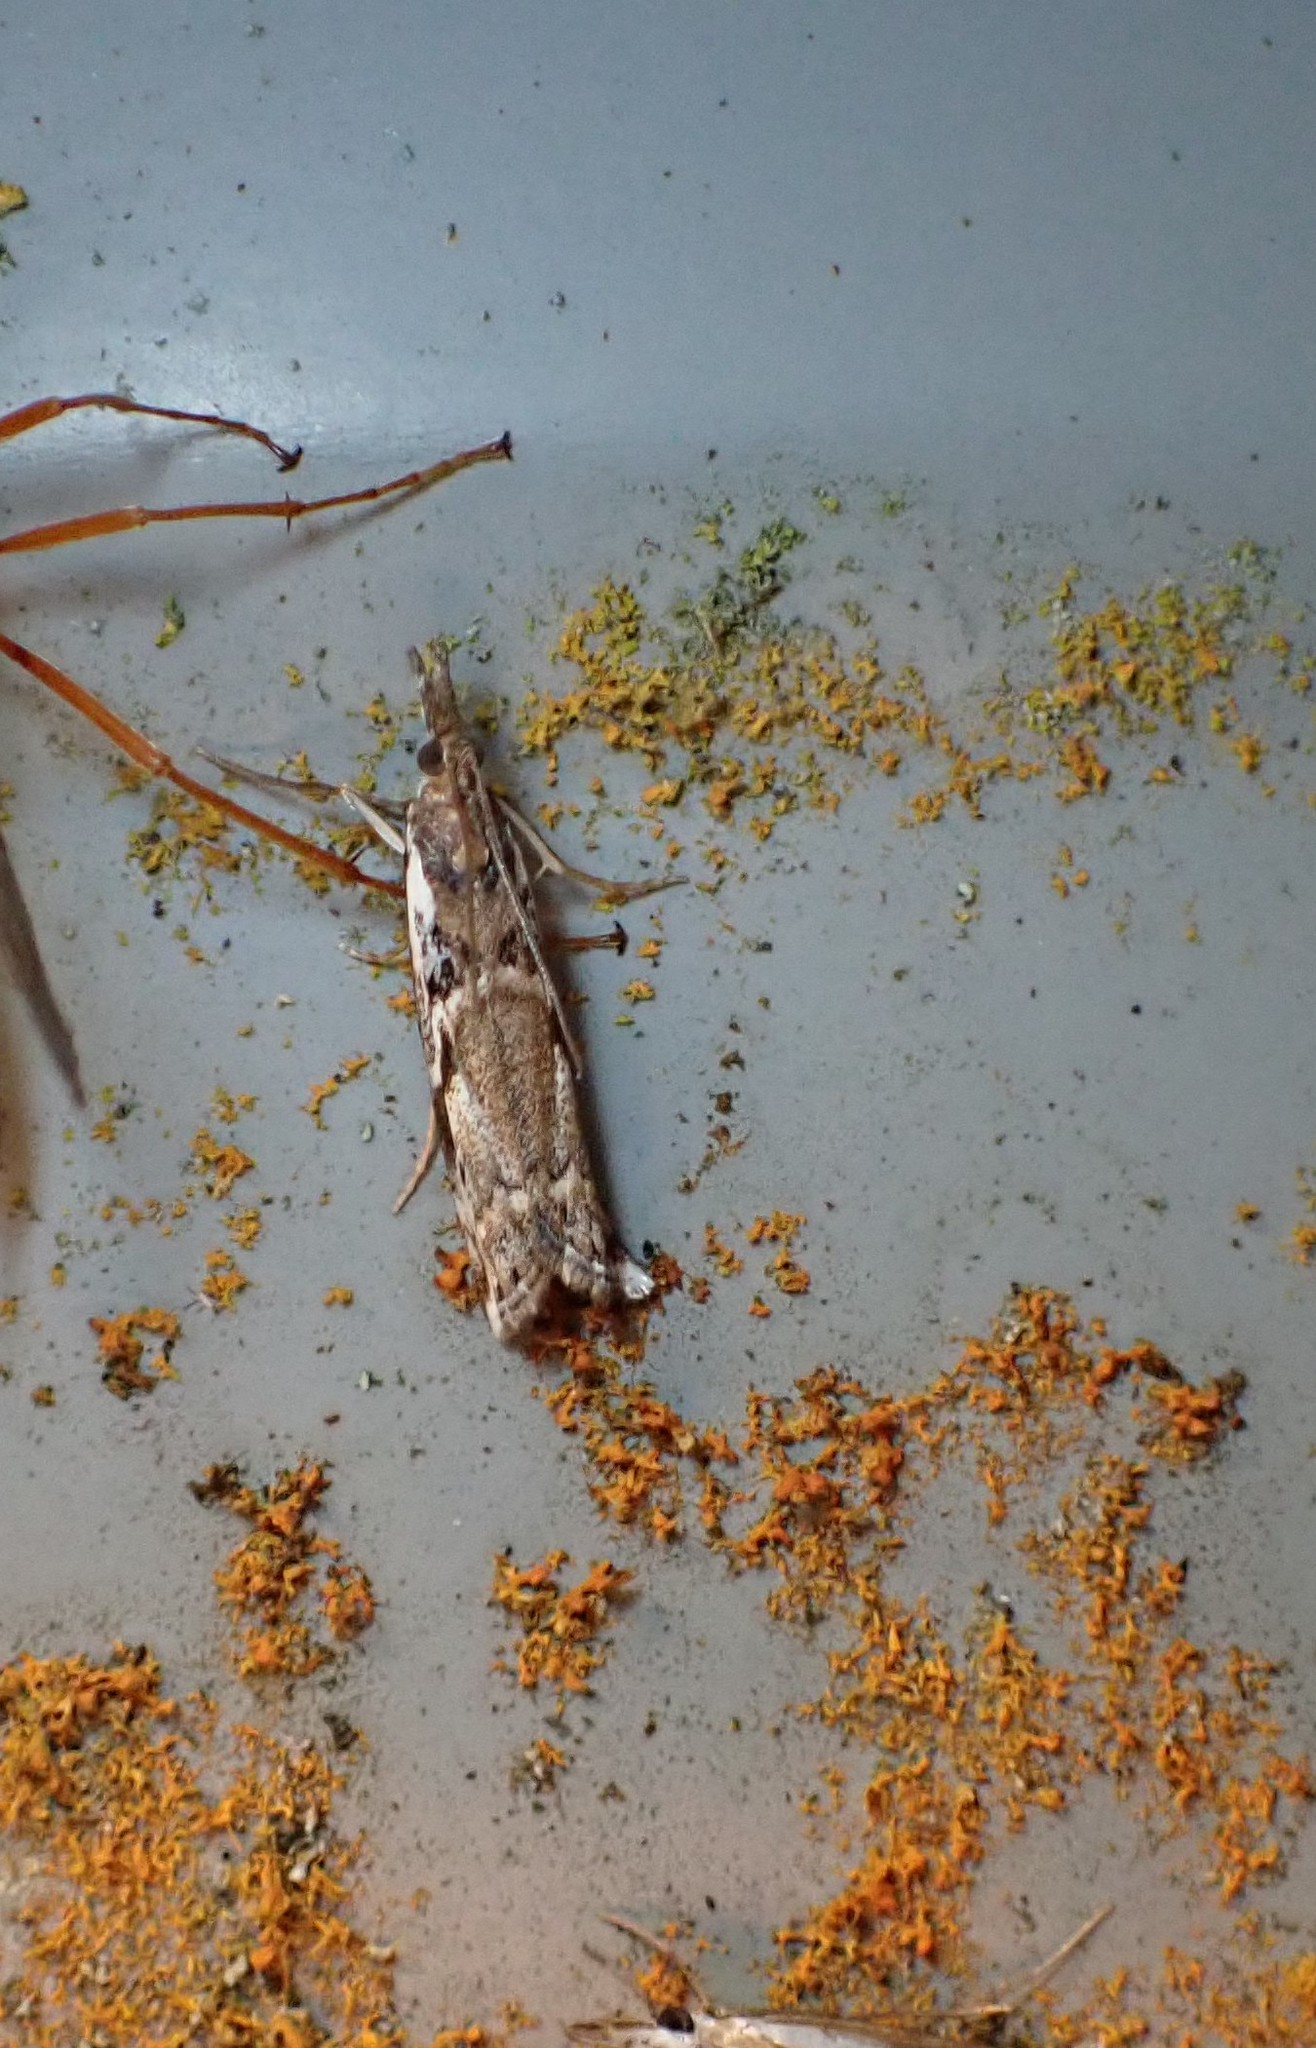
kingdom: Animalia
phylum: Arthropoda
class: Insecta
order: Lepidoptera
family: Crambidae
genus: Orocrambus
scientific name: Orocrambus vulgaris
